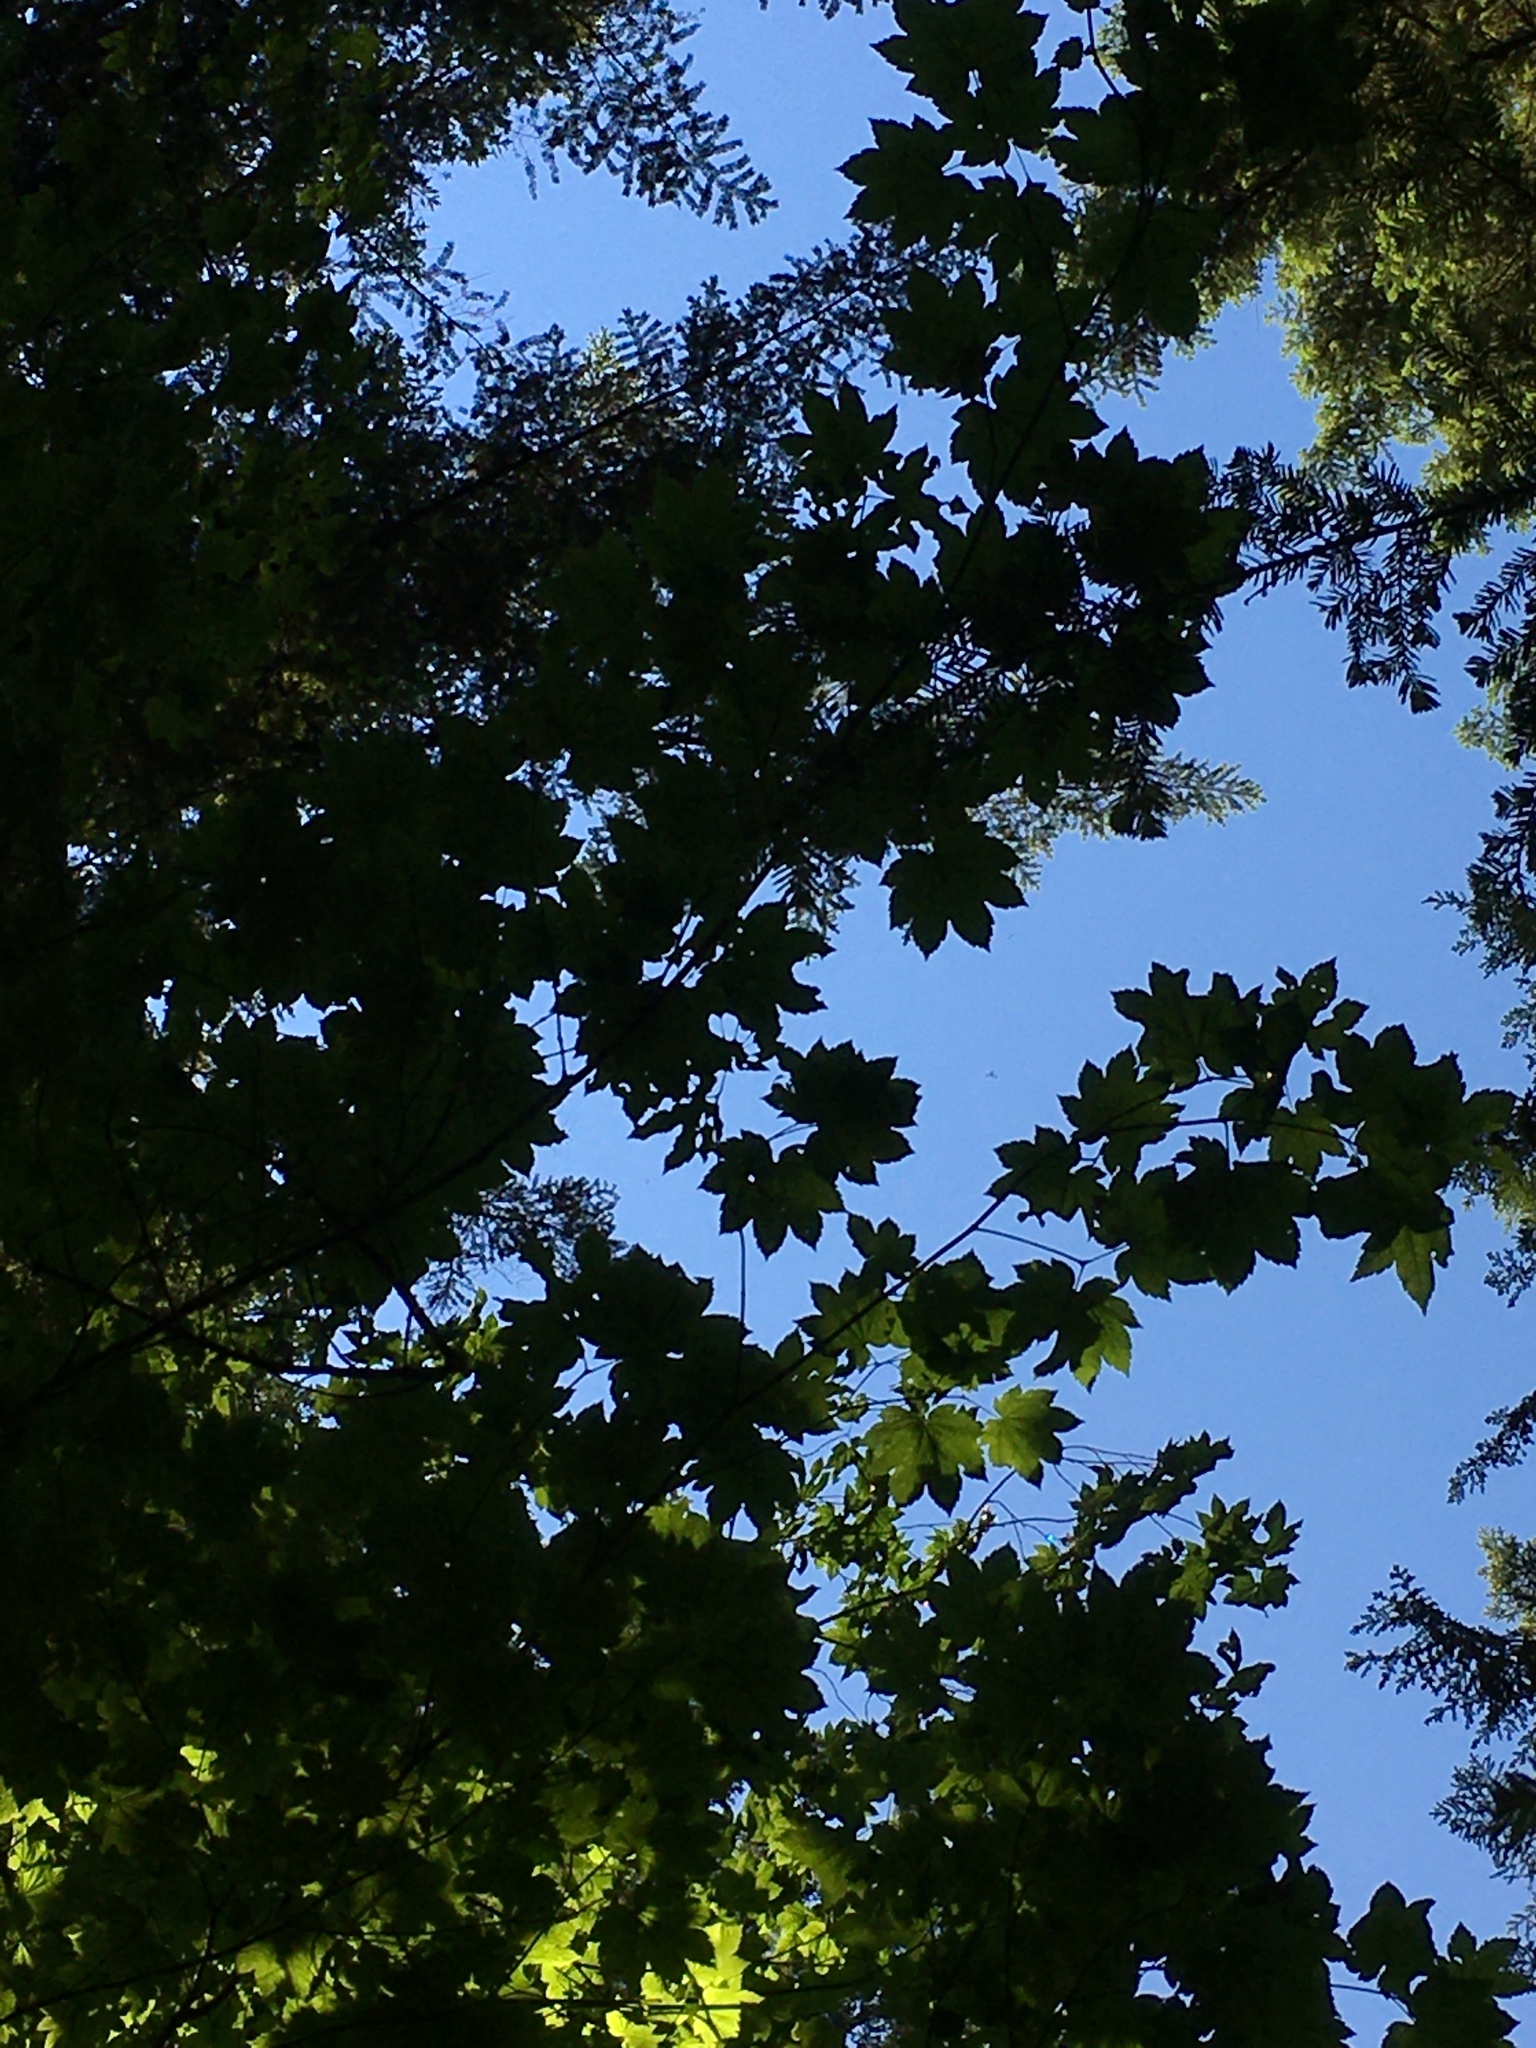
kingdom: Plantae
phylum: Tracheophyta
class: Magnoliopsida
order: Sapindales
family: Sapindaceae
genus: Acer
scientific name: Acer circinatum
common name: Vine maple
